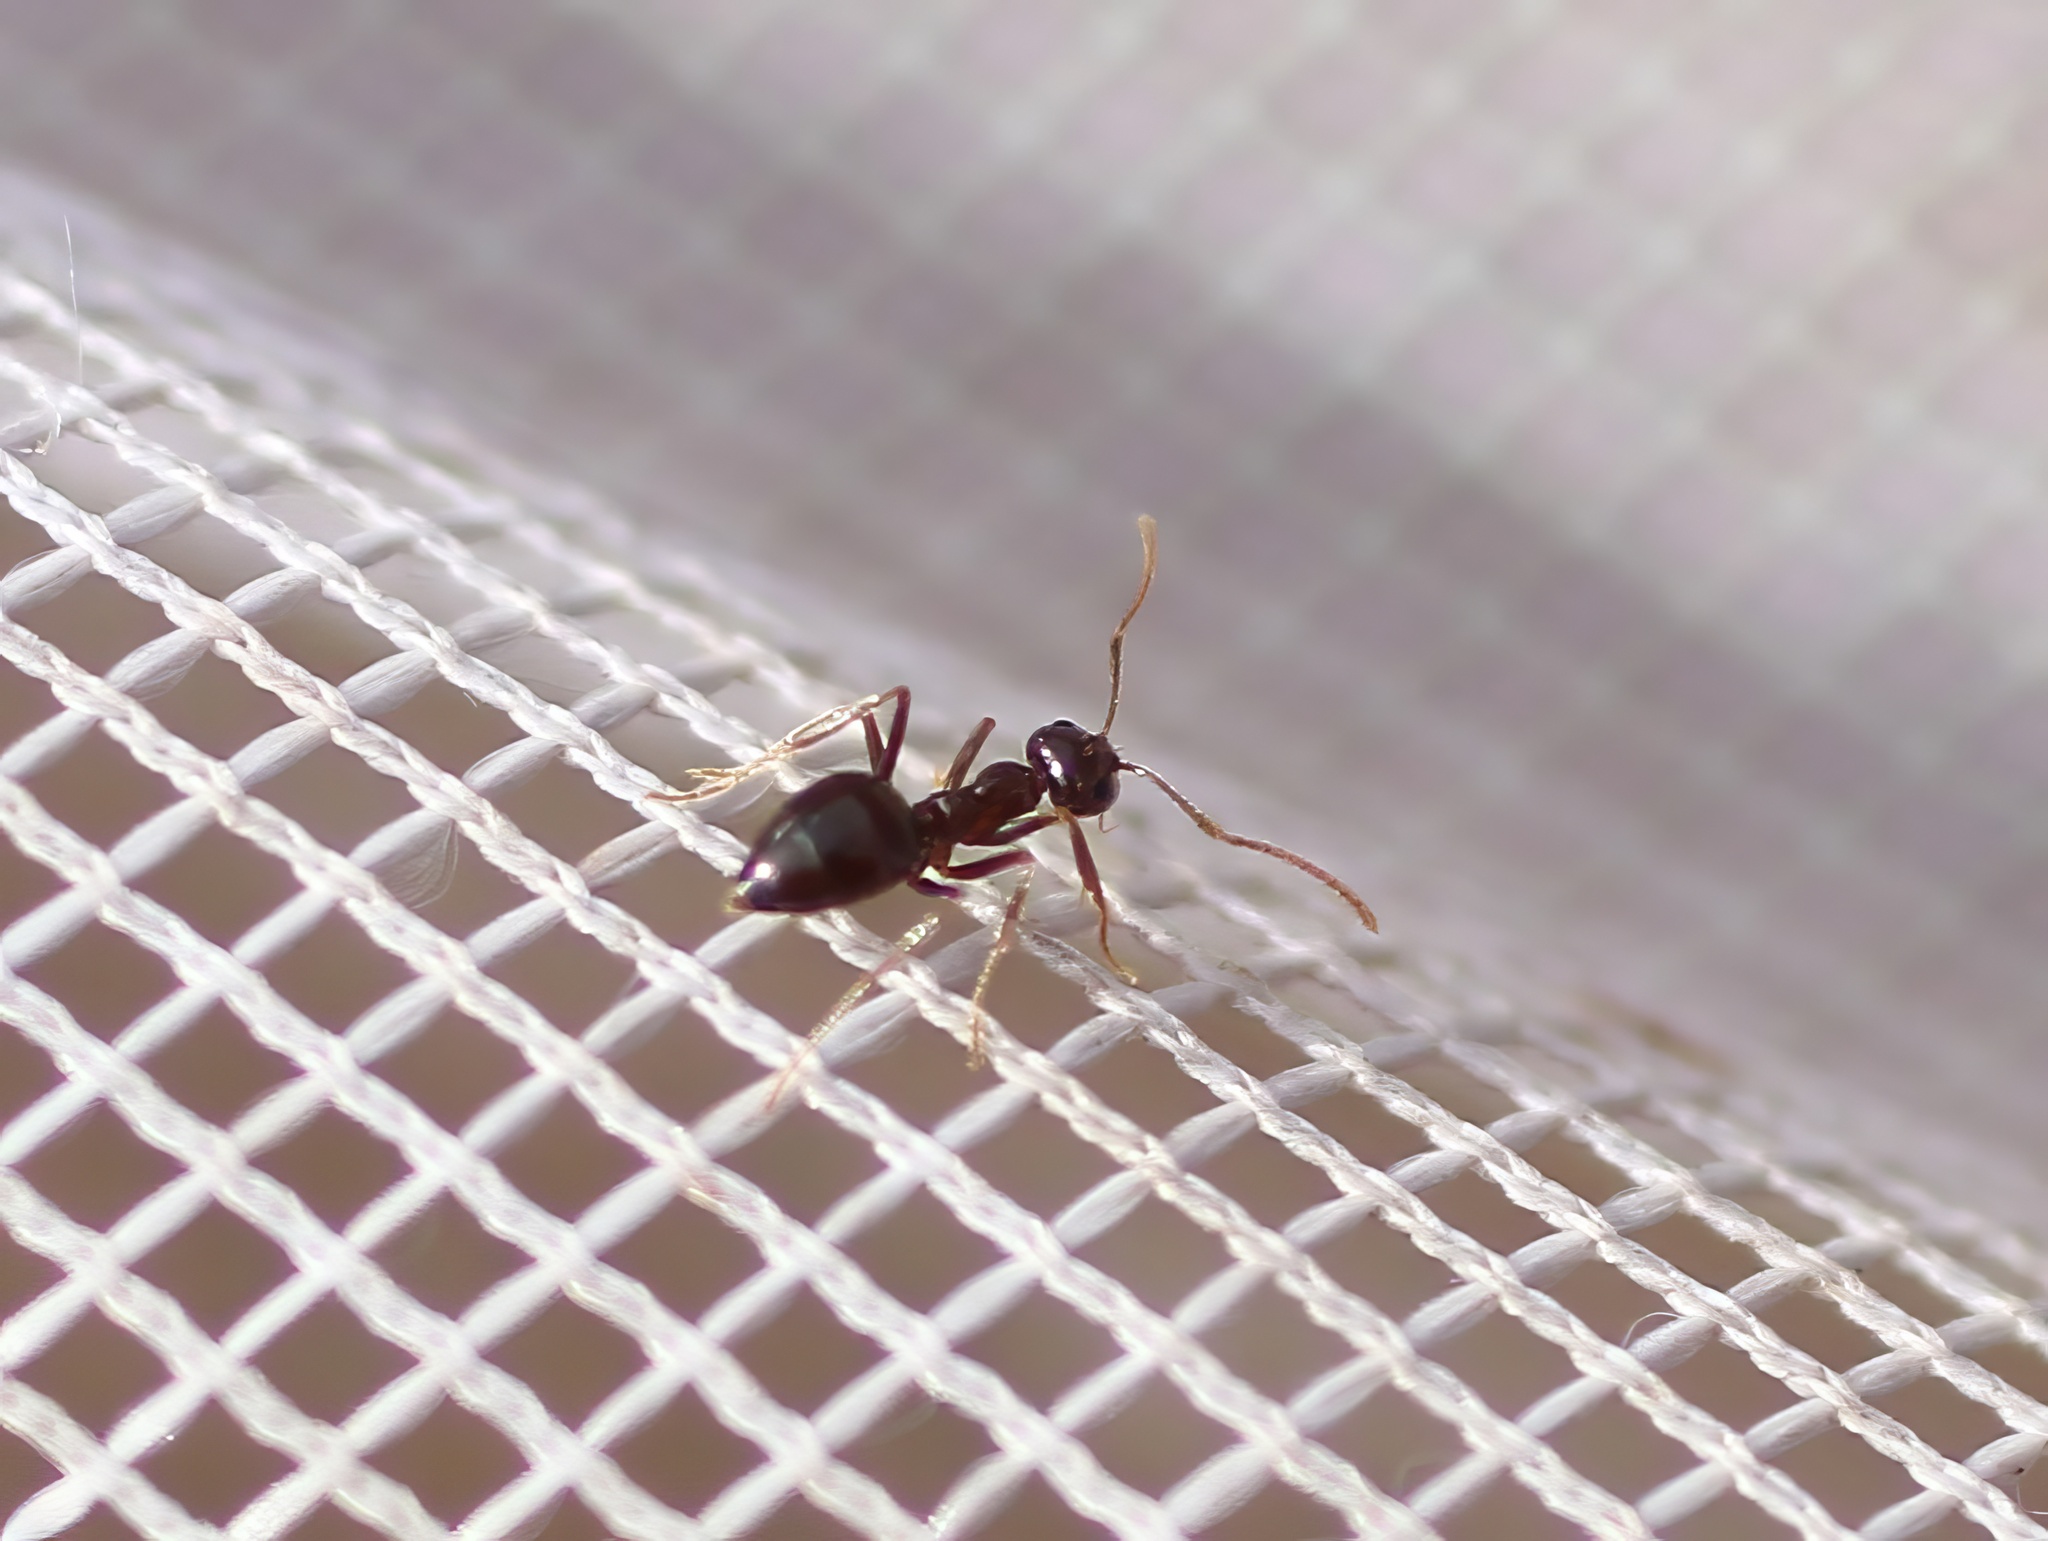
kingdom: Animalia
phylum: Arthropoda
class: Insecta
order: Hymenoptera
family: Formicidae
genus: Prenolepis
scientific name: Prenolepis imparis
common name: Small honey ant
